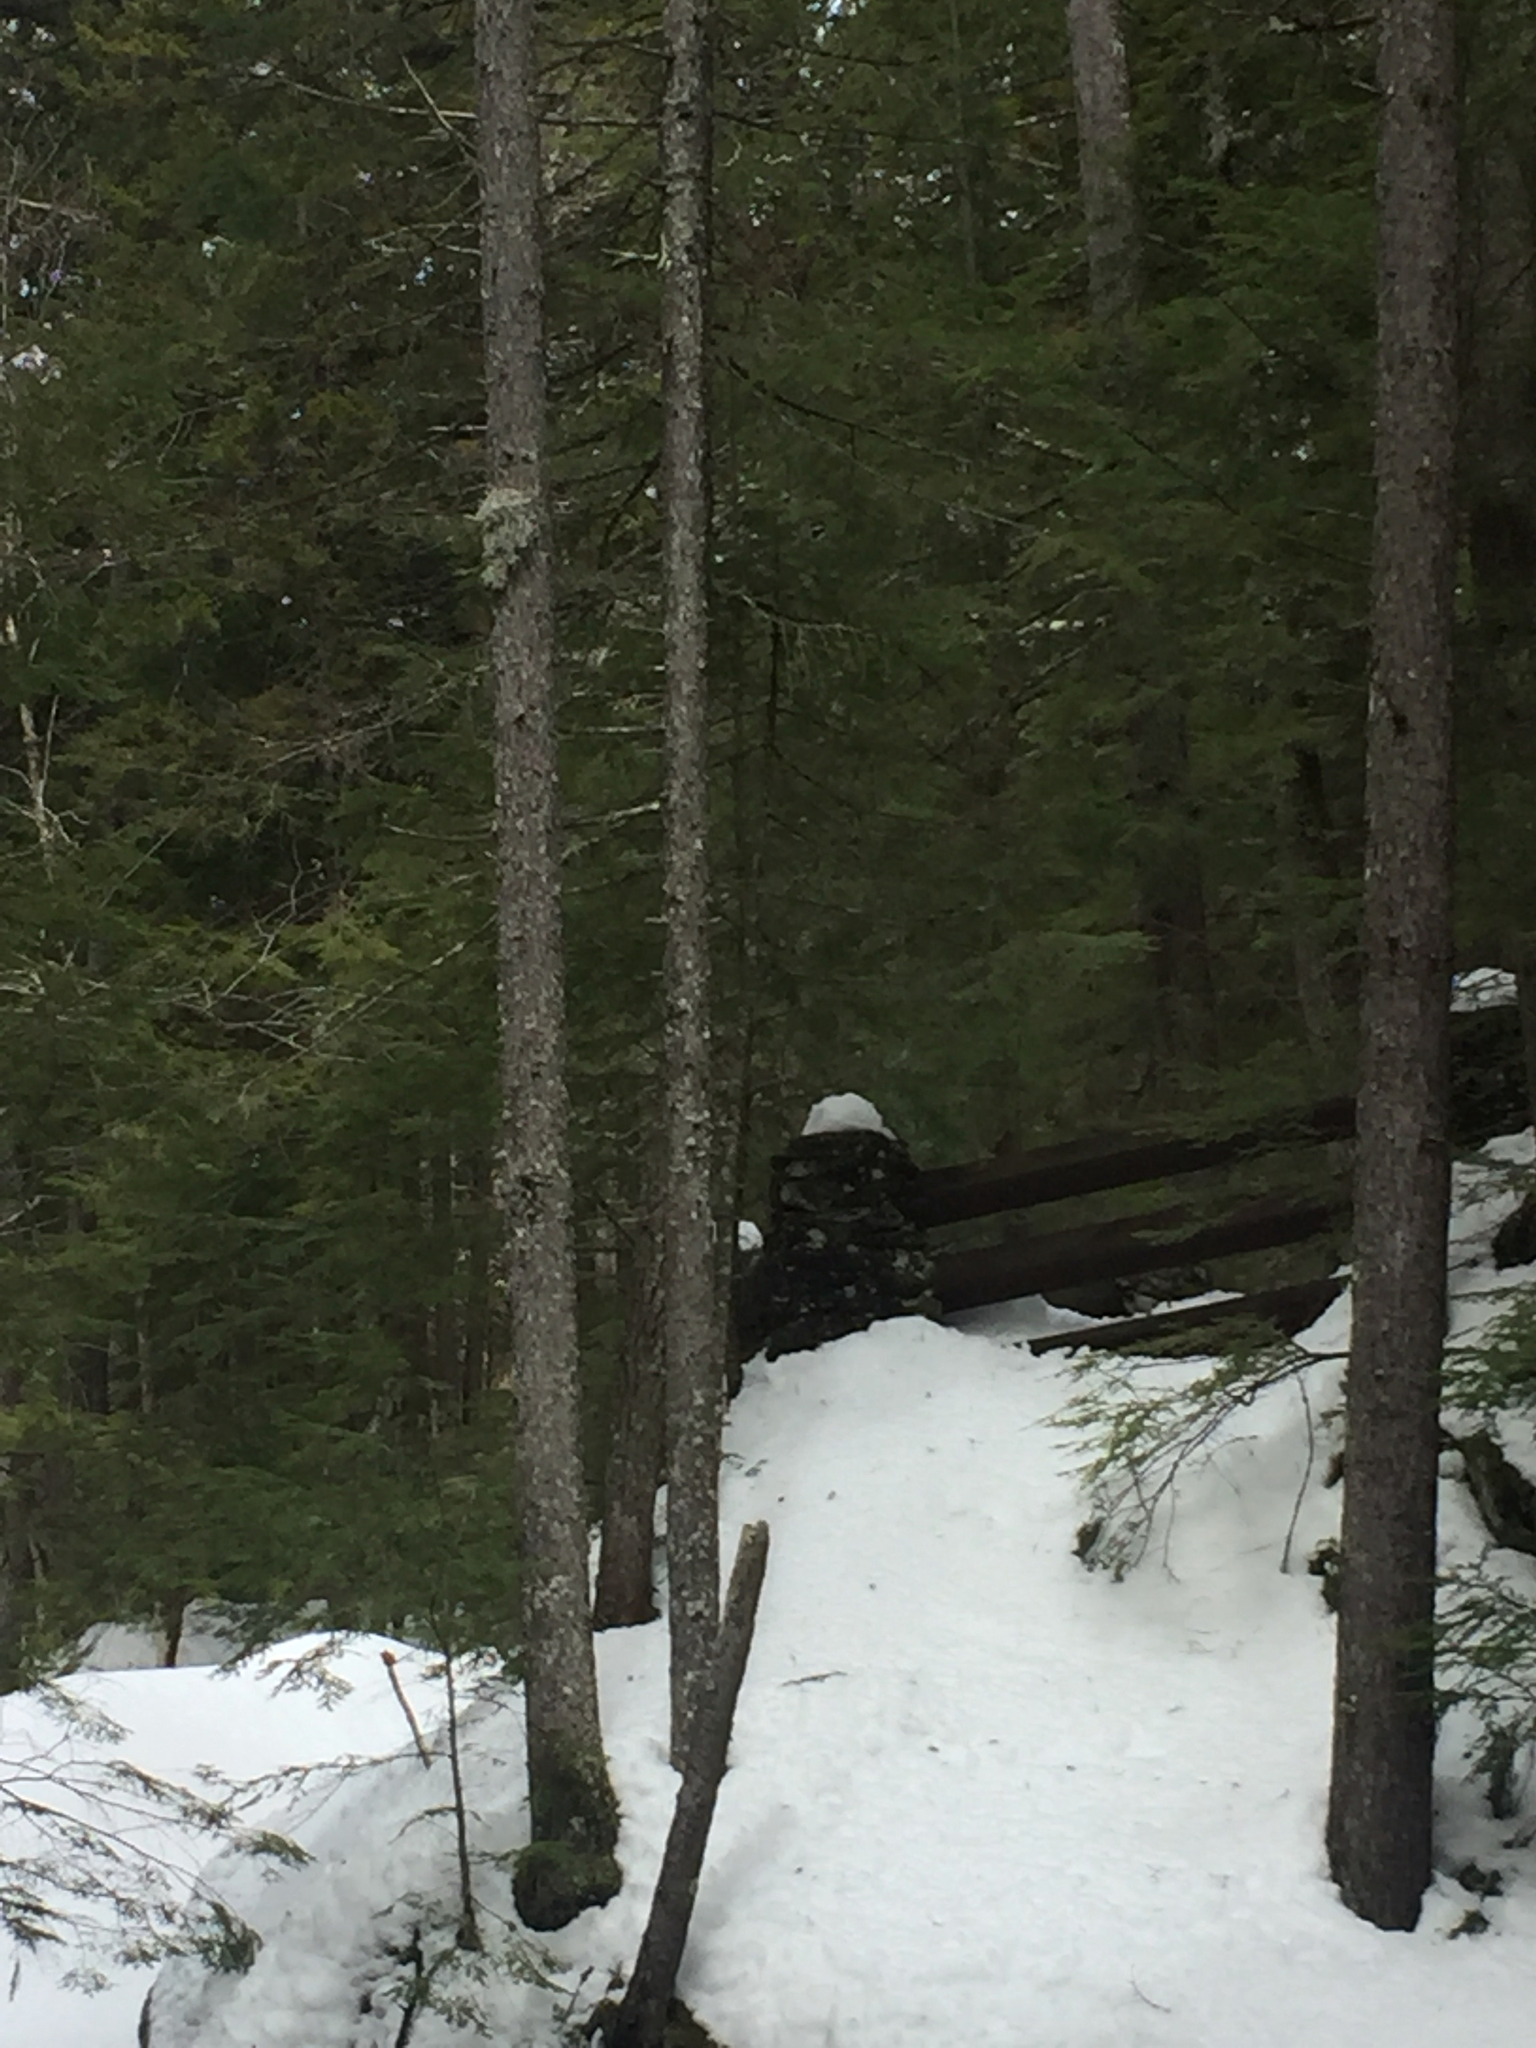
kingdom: Plantae
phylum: Tracheophyta
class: Pinopsida
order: Pinales
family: Pinaceae
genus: Picea
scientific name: Picea rubens
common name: Red spruce
